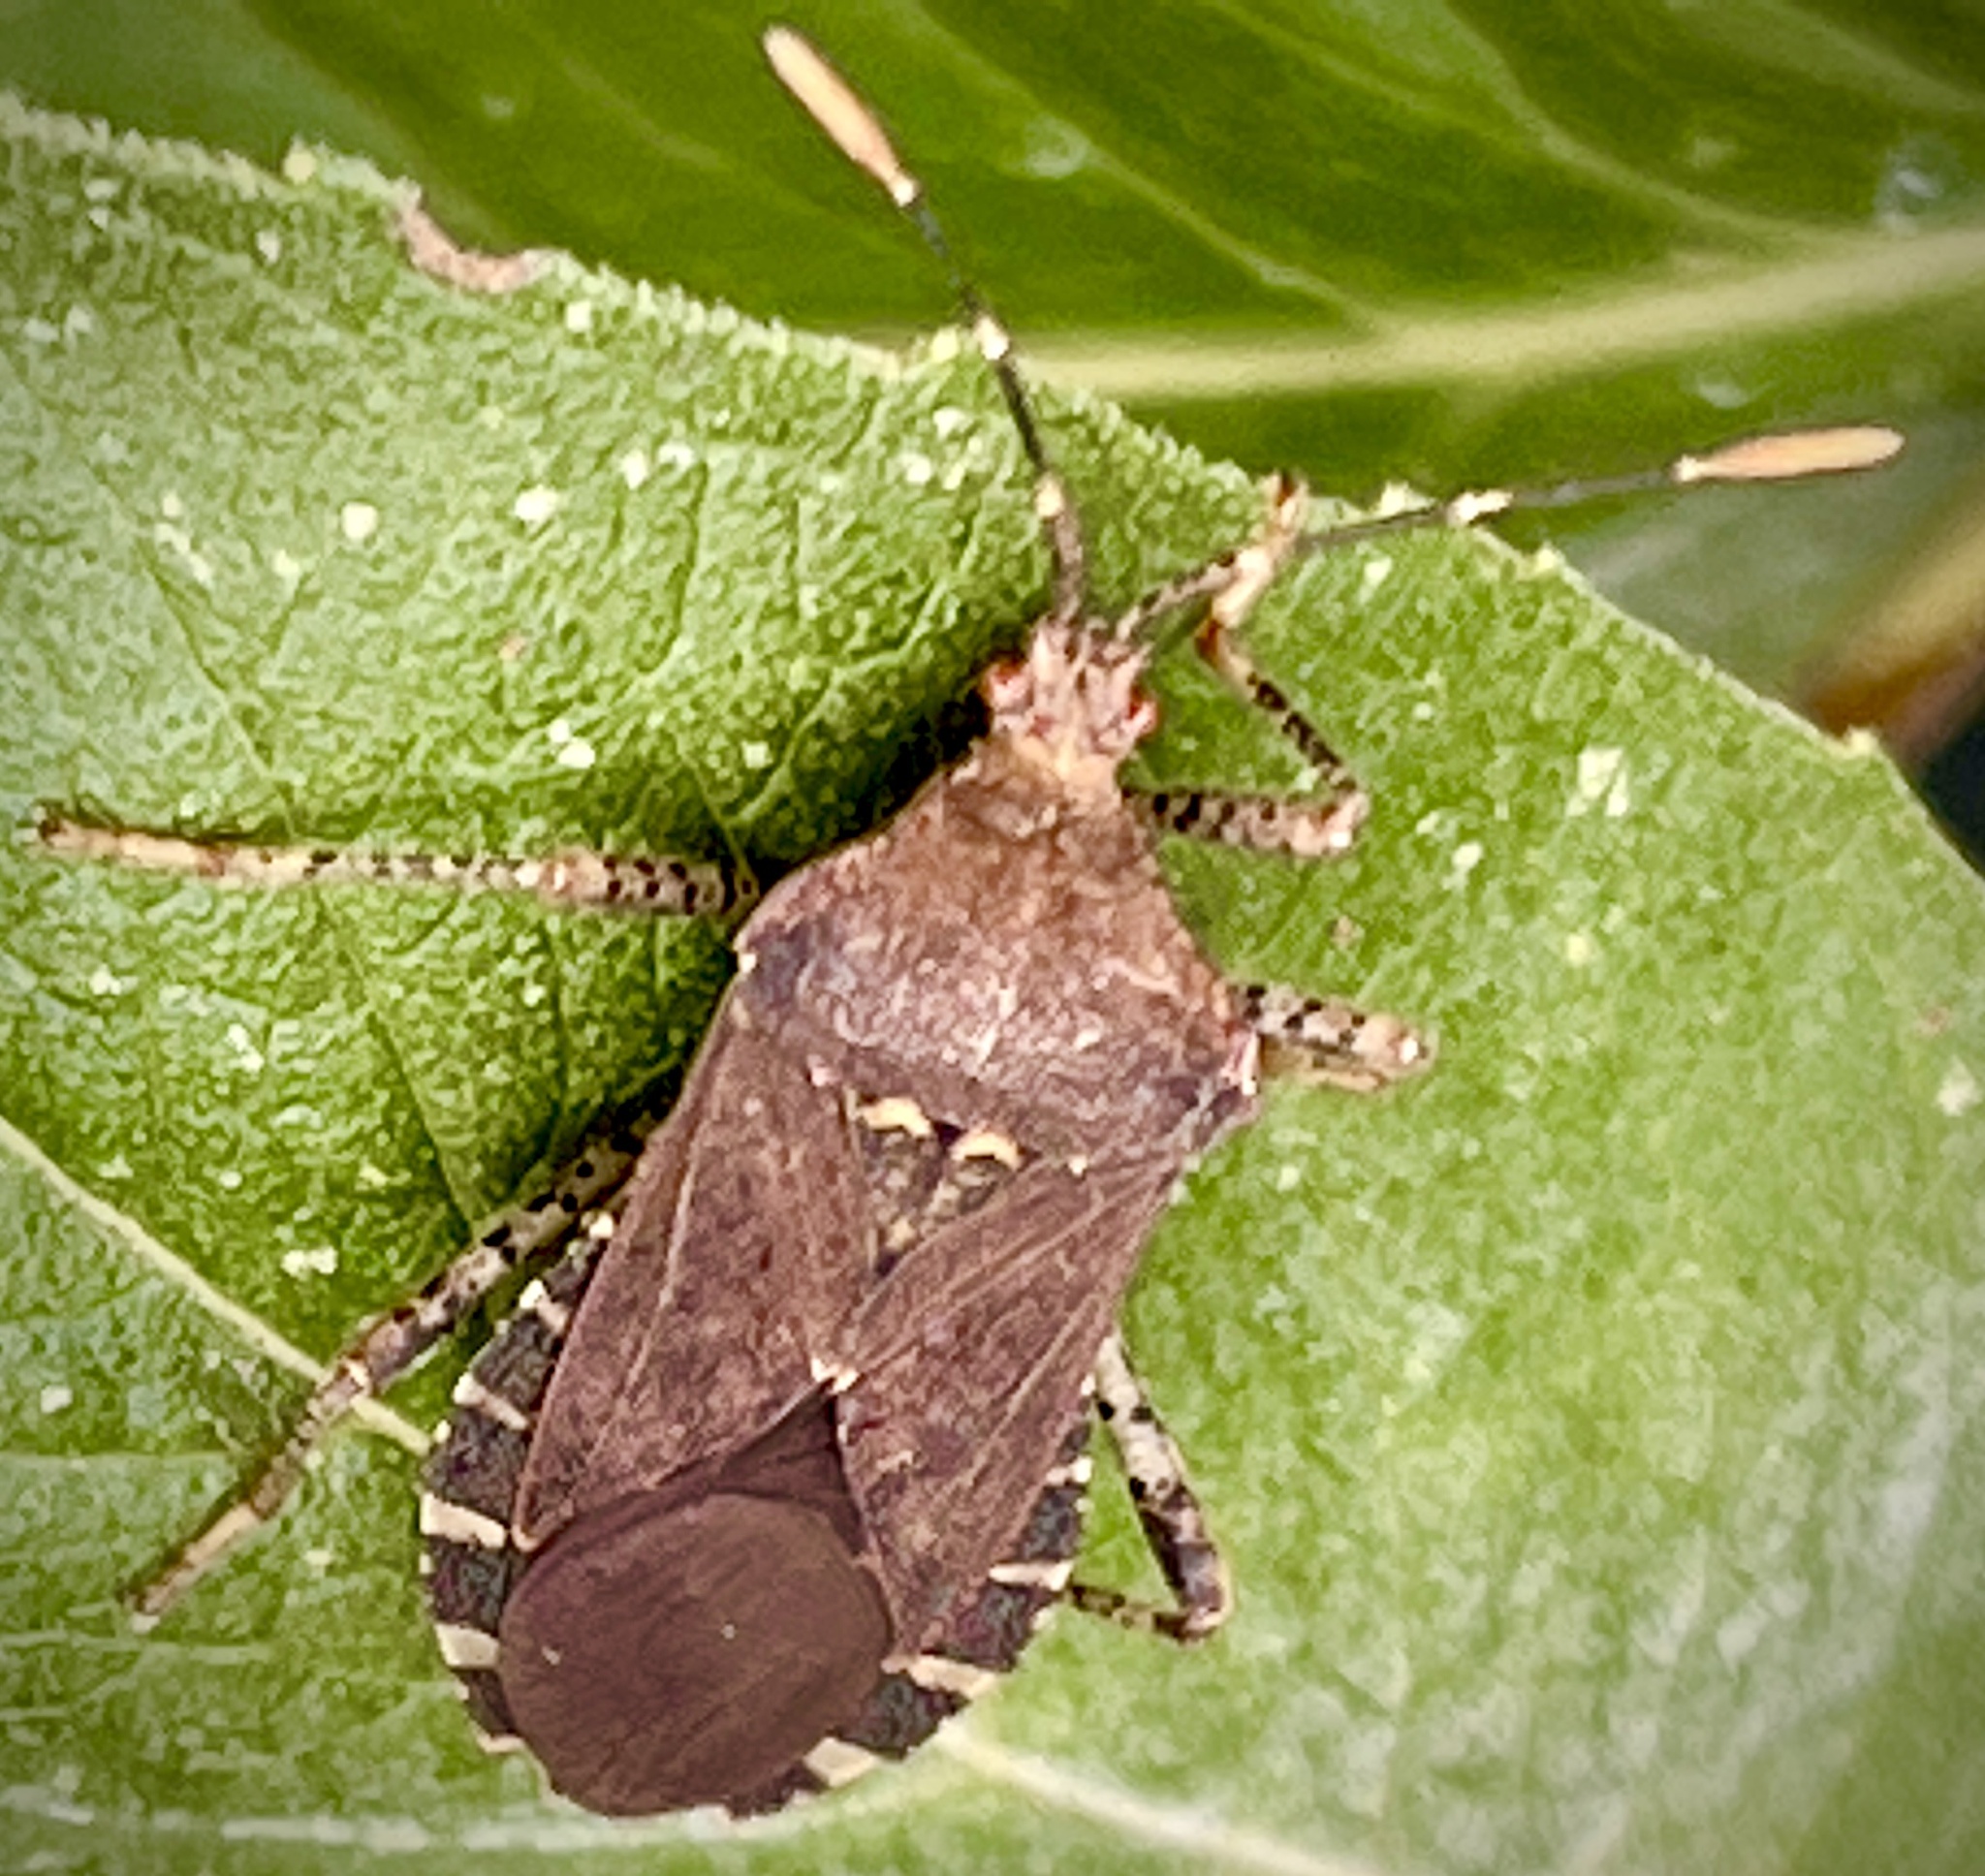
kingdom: Animalia
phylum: Arthropoda
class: Insecta
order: Hemiptera
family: Coreidae
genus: Anasa
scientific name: Anasa armigera
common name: Horned squash bug
